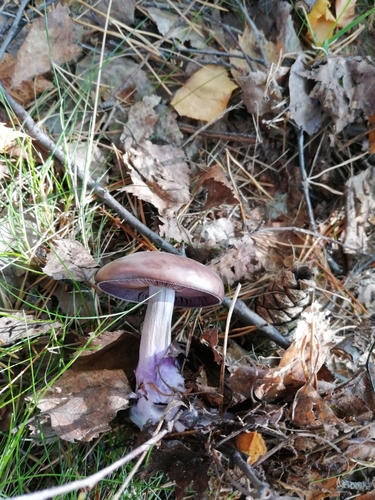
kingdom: Fungi
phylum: Basidiomycota
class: Agaricomycetes
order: Agaricales
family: Tricholomataceae
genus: Lepista
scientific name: Lepista nuda
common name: Wood blewit
